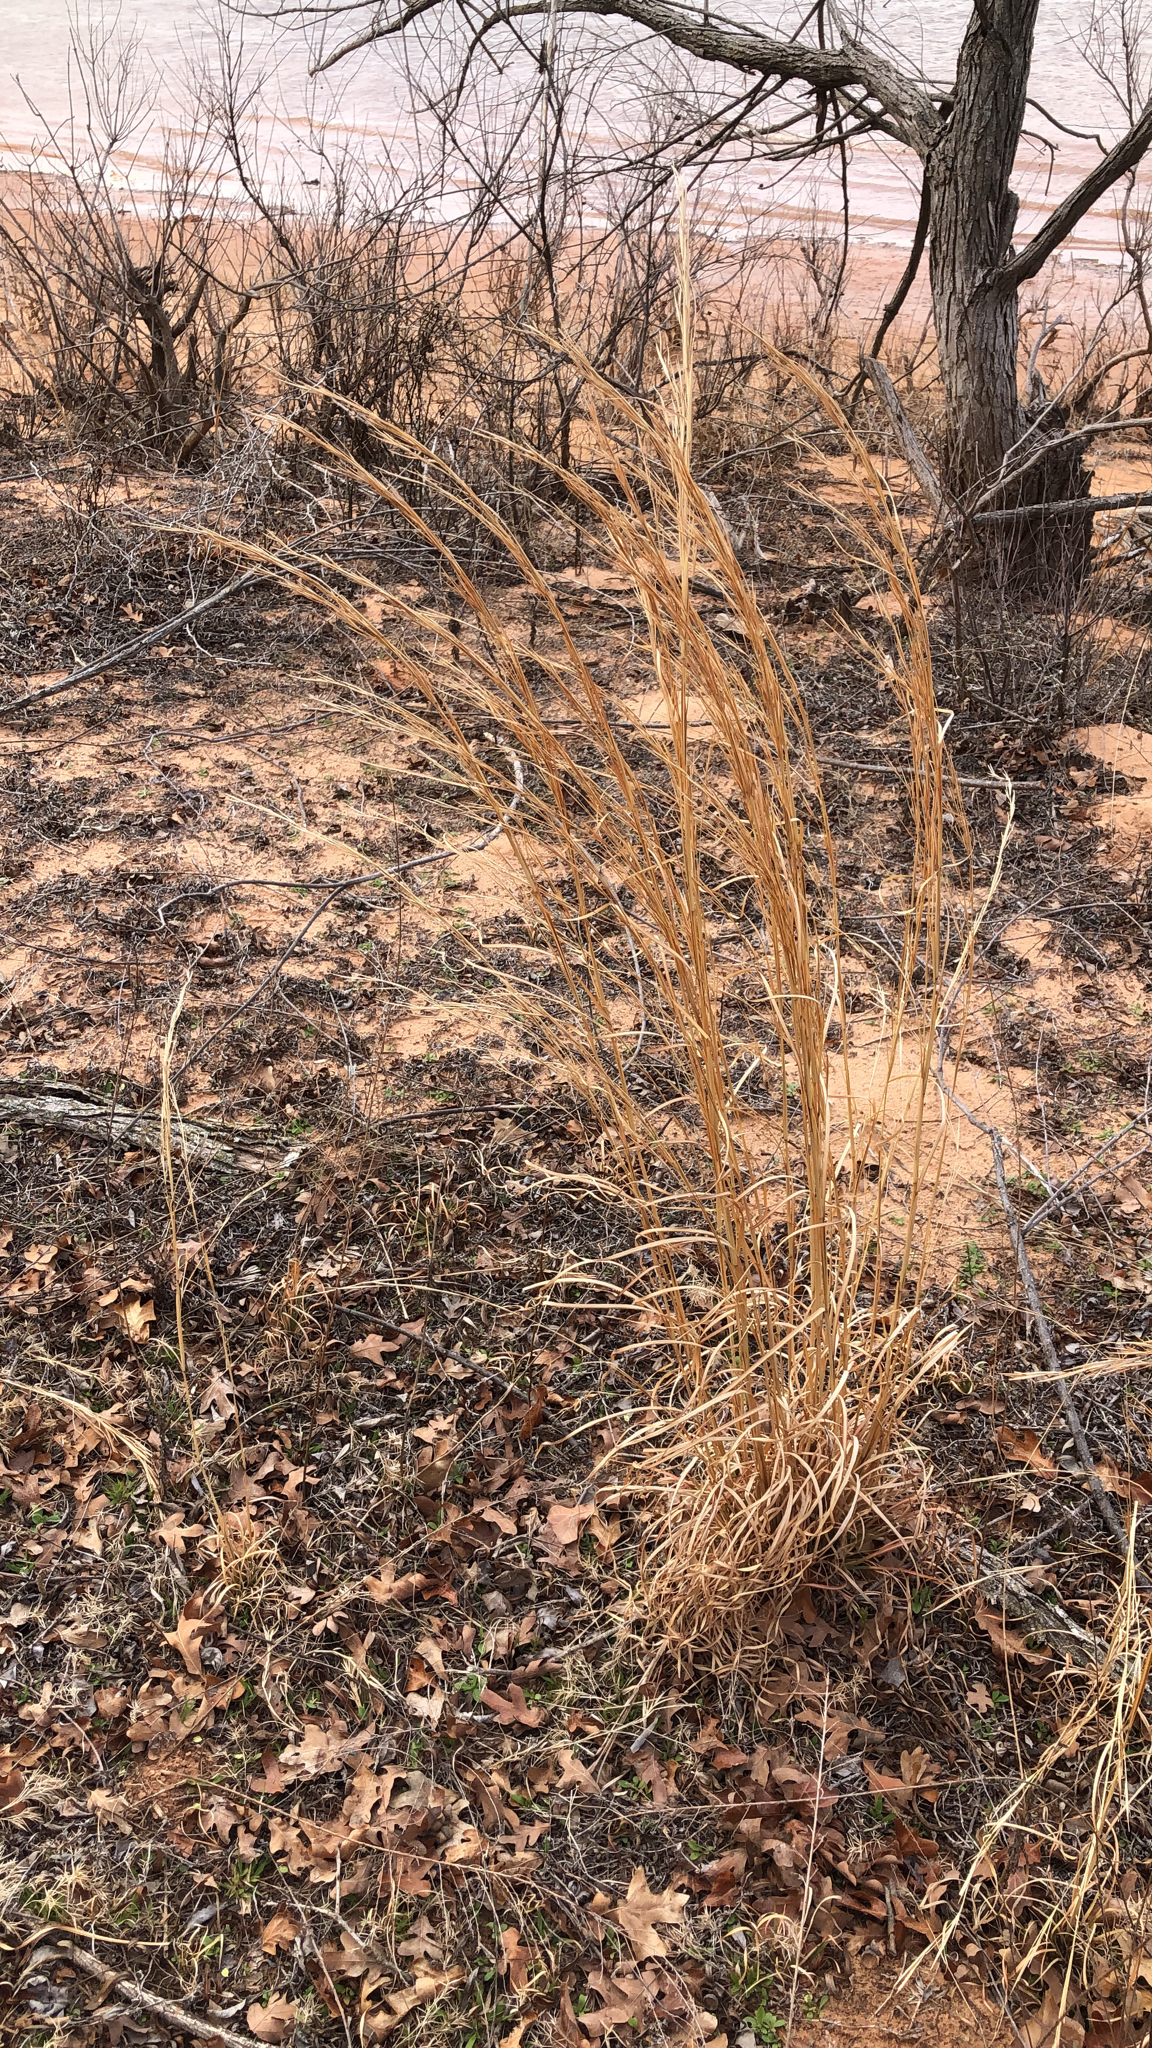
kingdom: Plantae
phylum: Tracheophyta
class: Liliopsida
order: Poales
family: Poaceae
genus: Andropogon
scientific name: Andropogon virginicus
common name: Broomsedge bluestem
